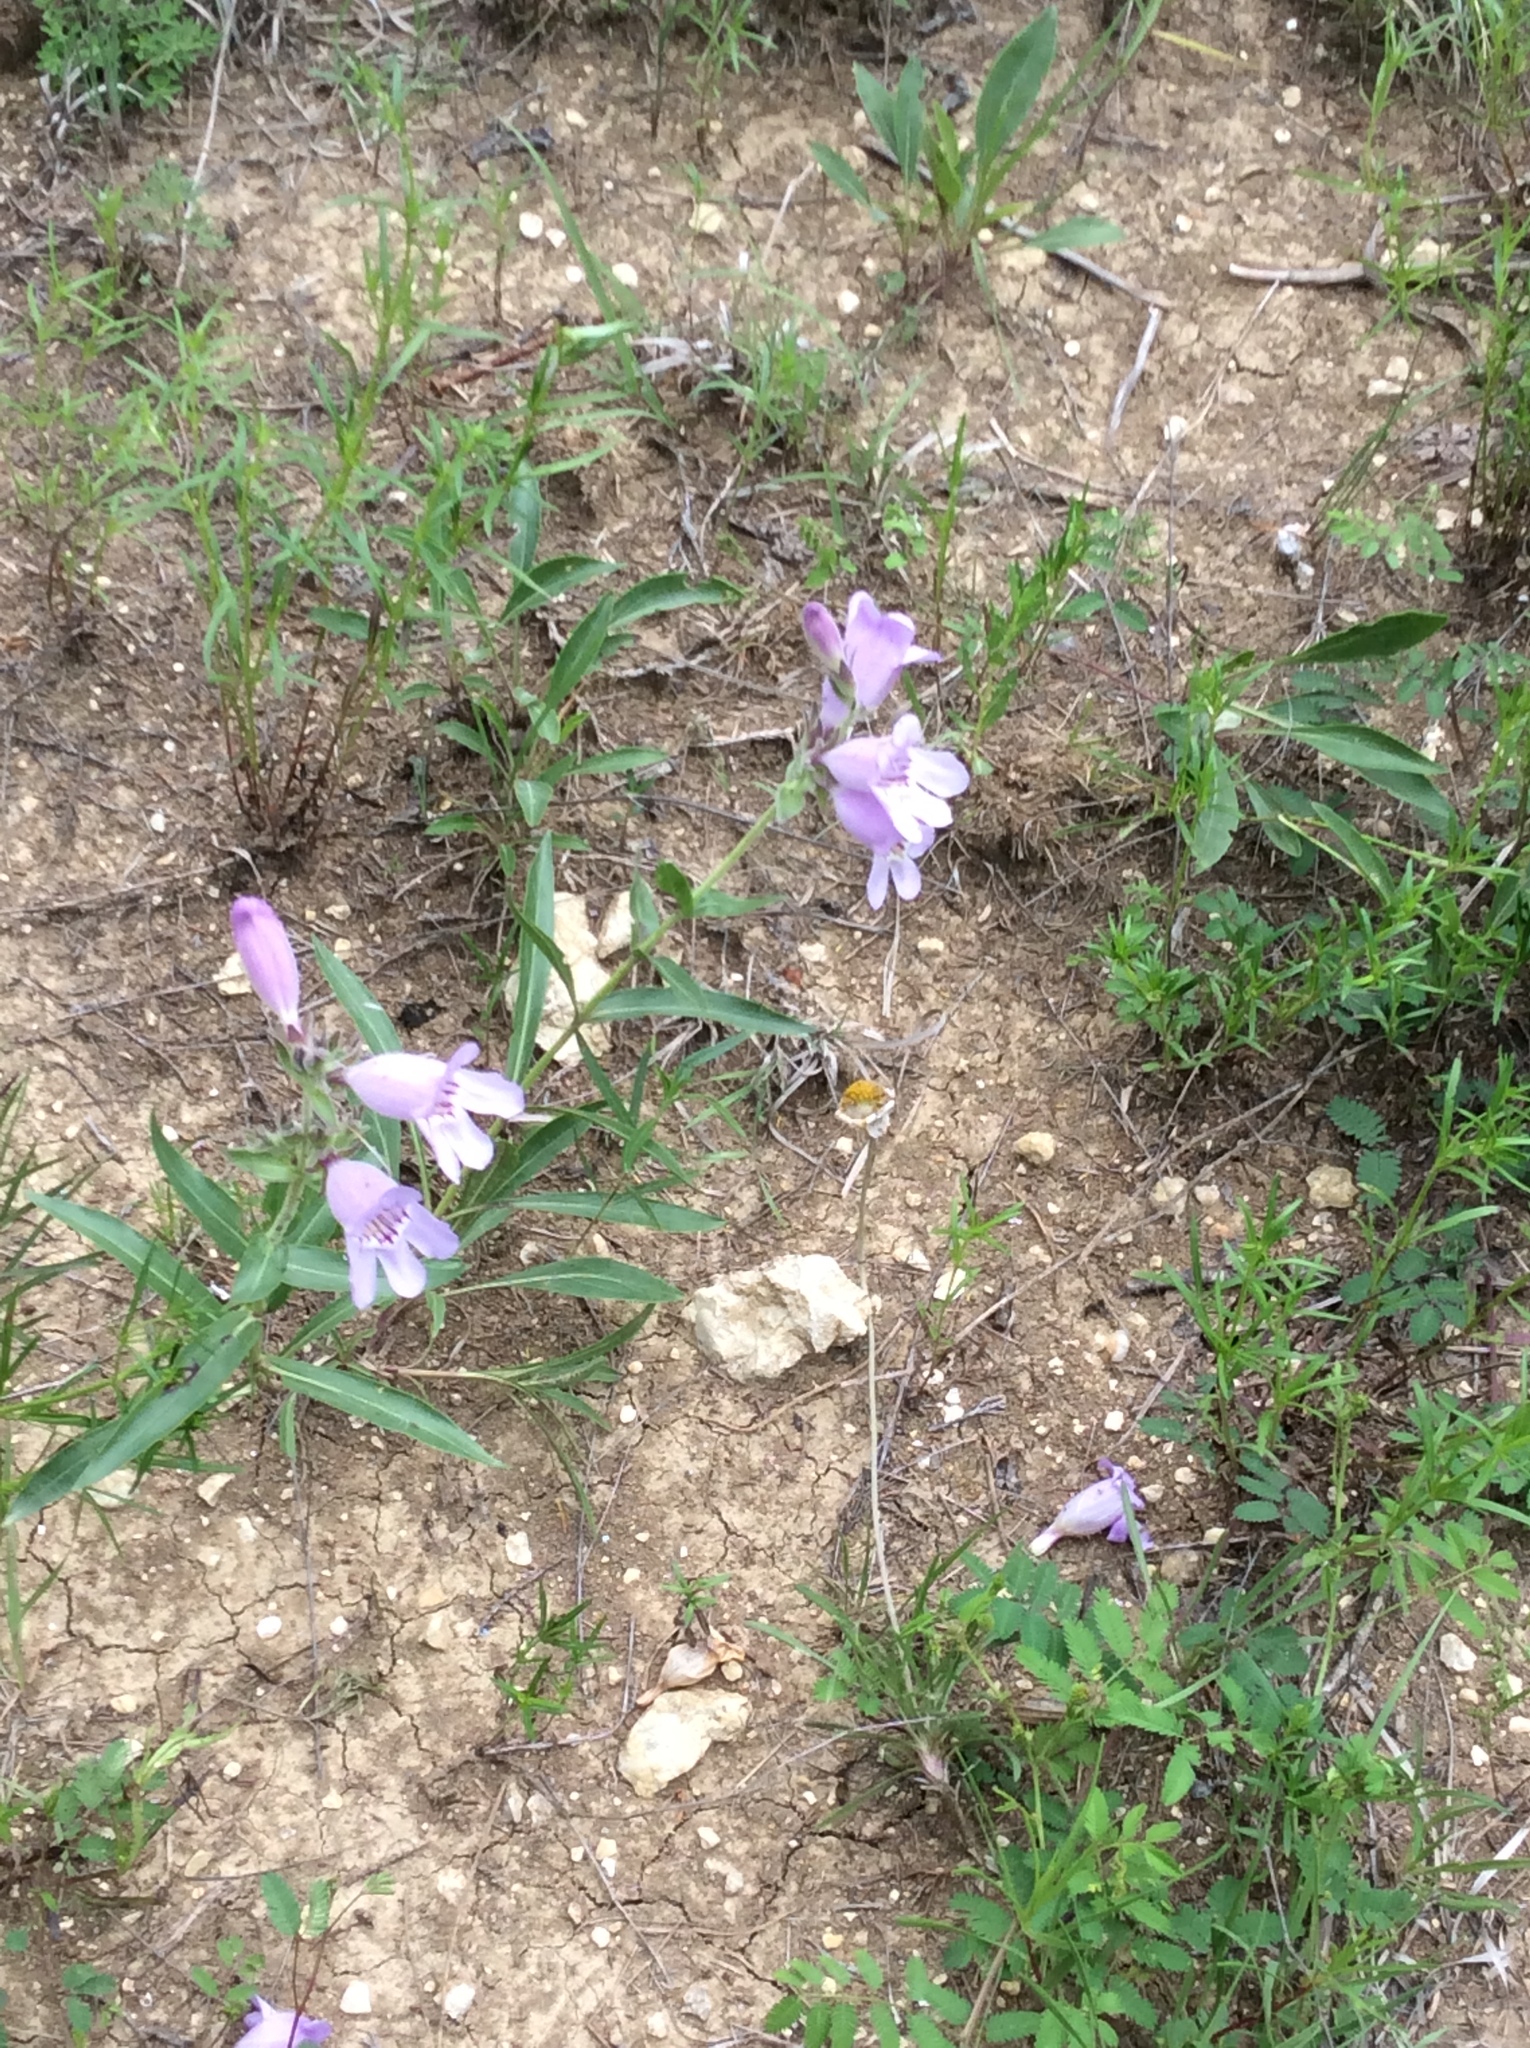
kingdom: Plantae
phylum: Tracheophyta
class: Magnoliopsida
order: Lamiales
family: Plantaginaceae
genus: Penstemon
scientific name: Penstemon cobaea
